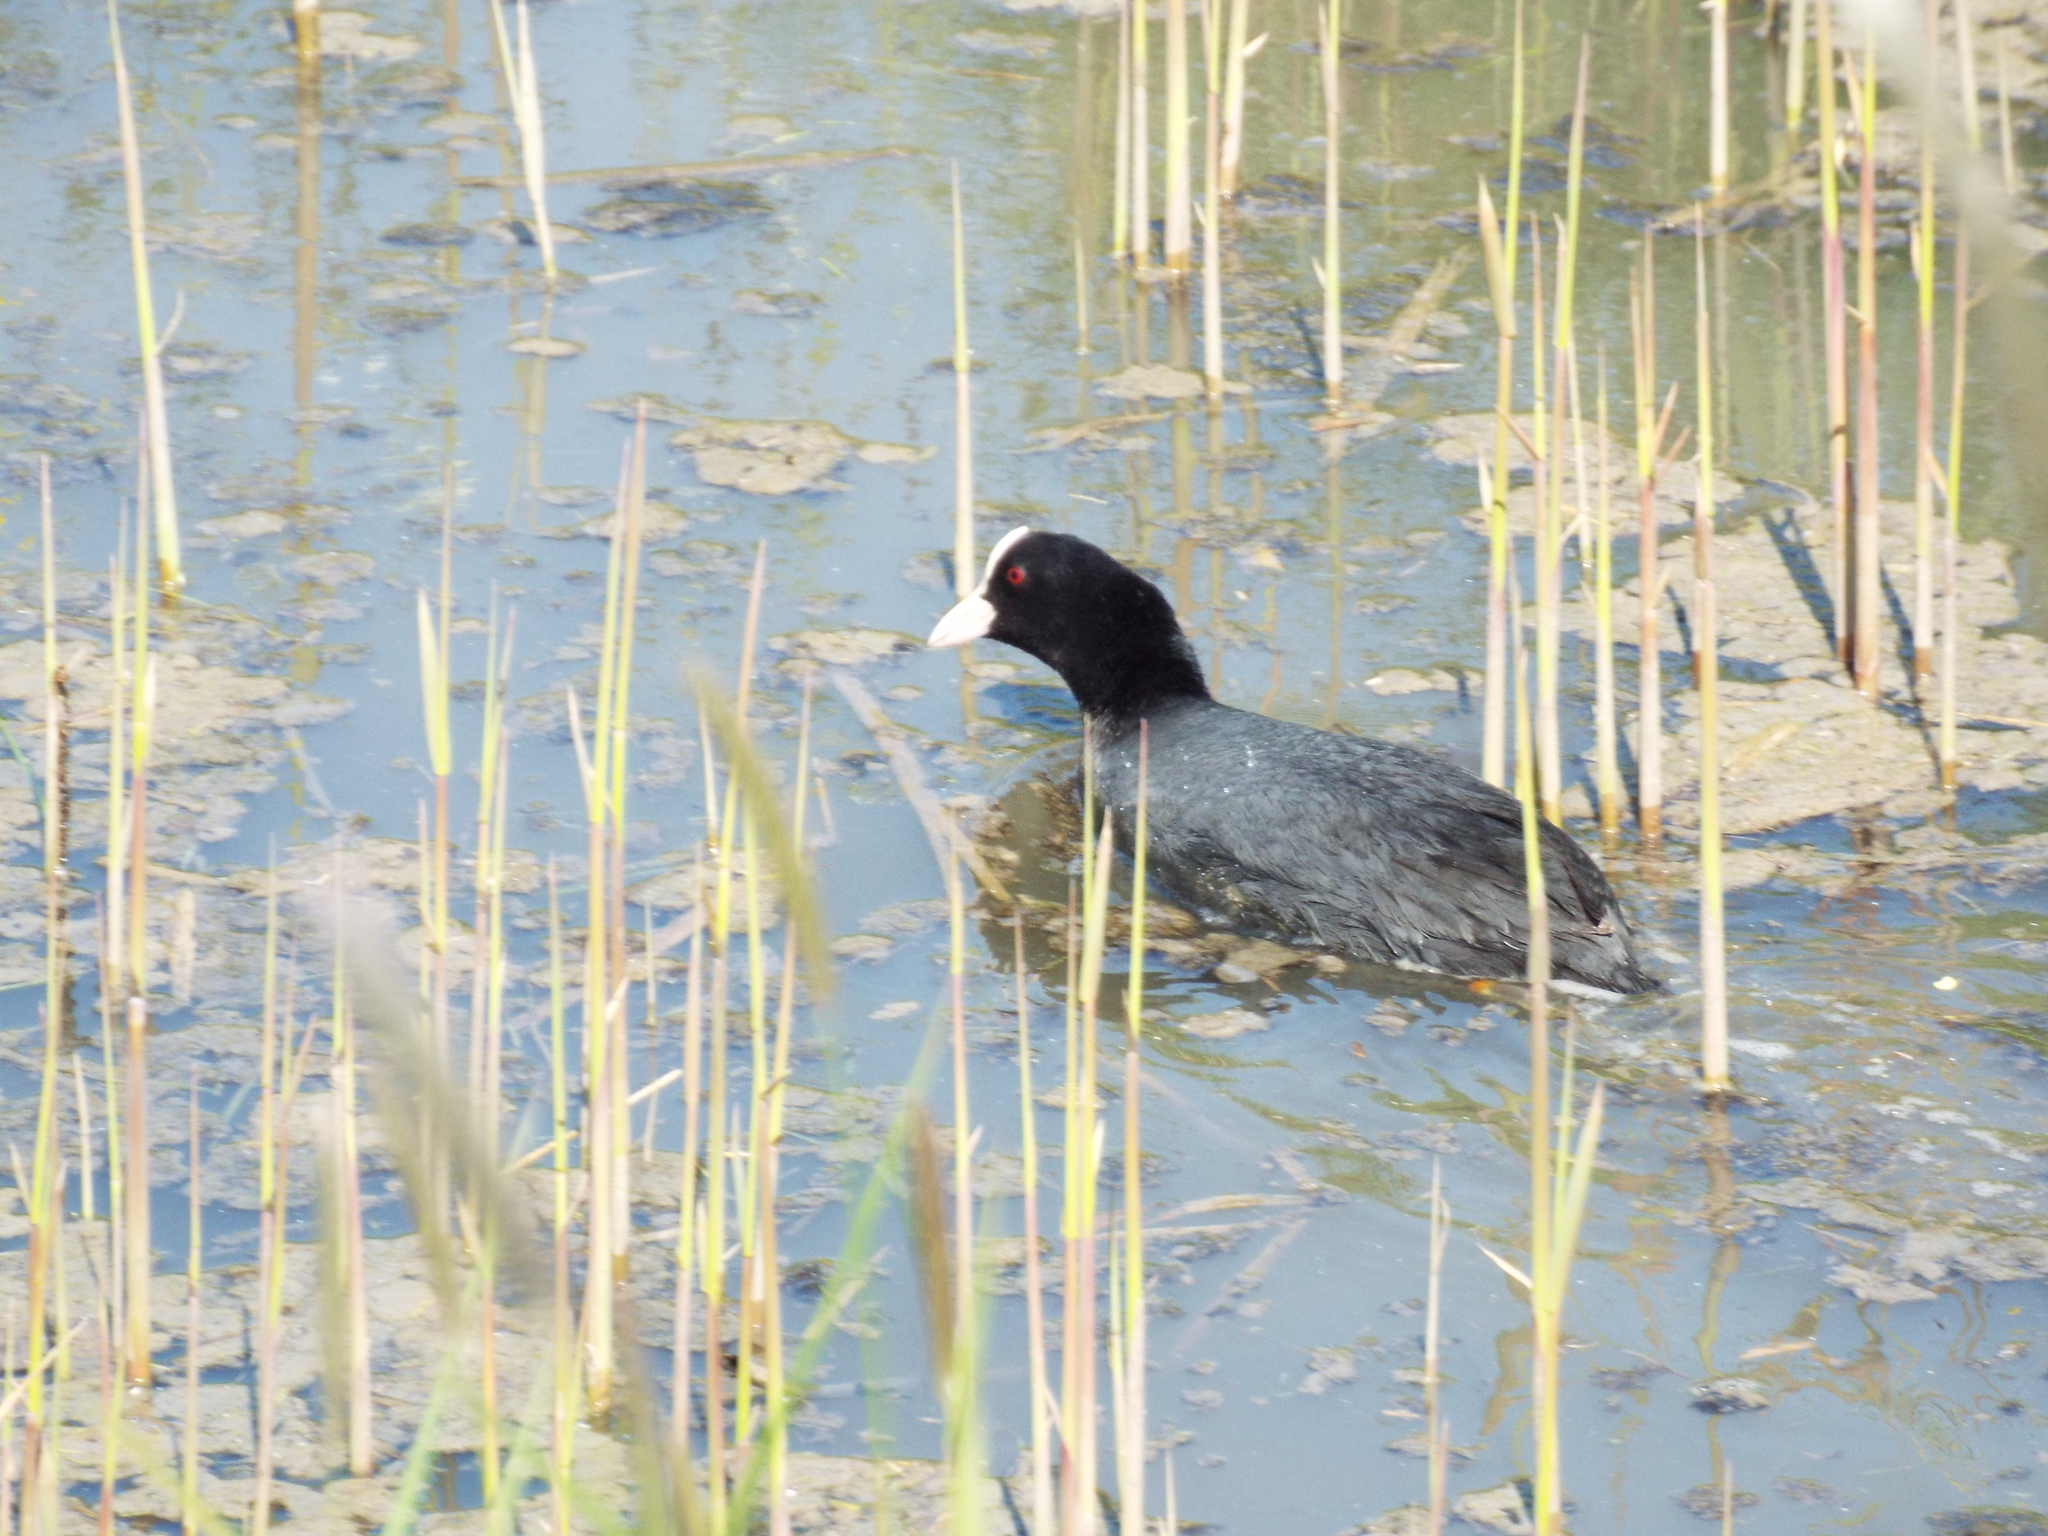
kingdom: Animalia
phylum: Chordata
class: Aves
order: Gruiformes
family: Rallidae
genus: Fulica
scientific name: Fulica atra
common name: Eurasian coot
